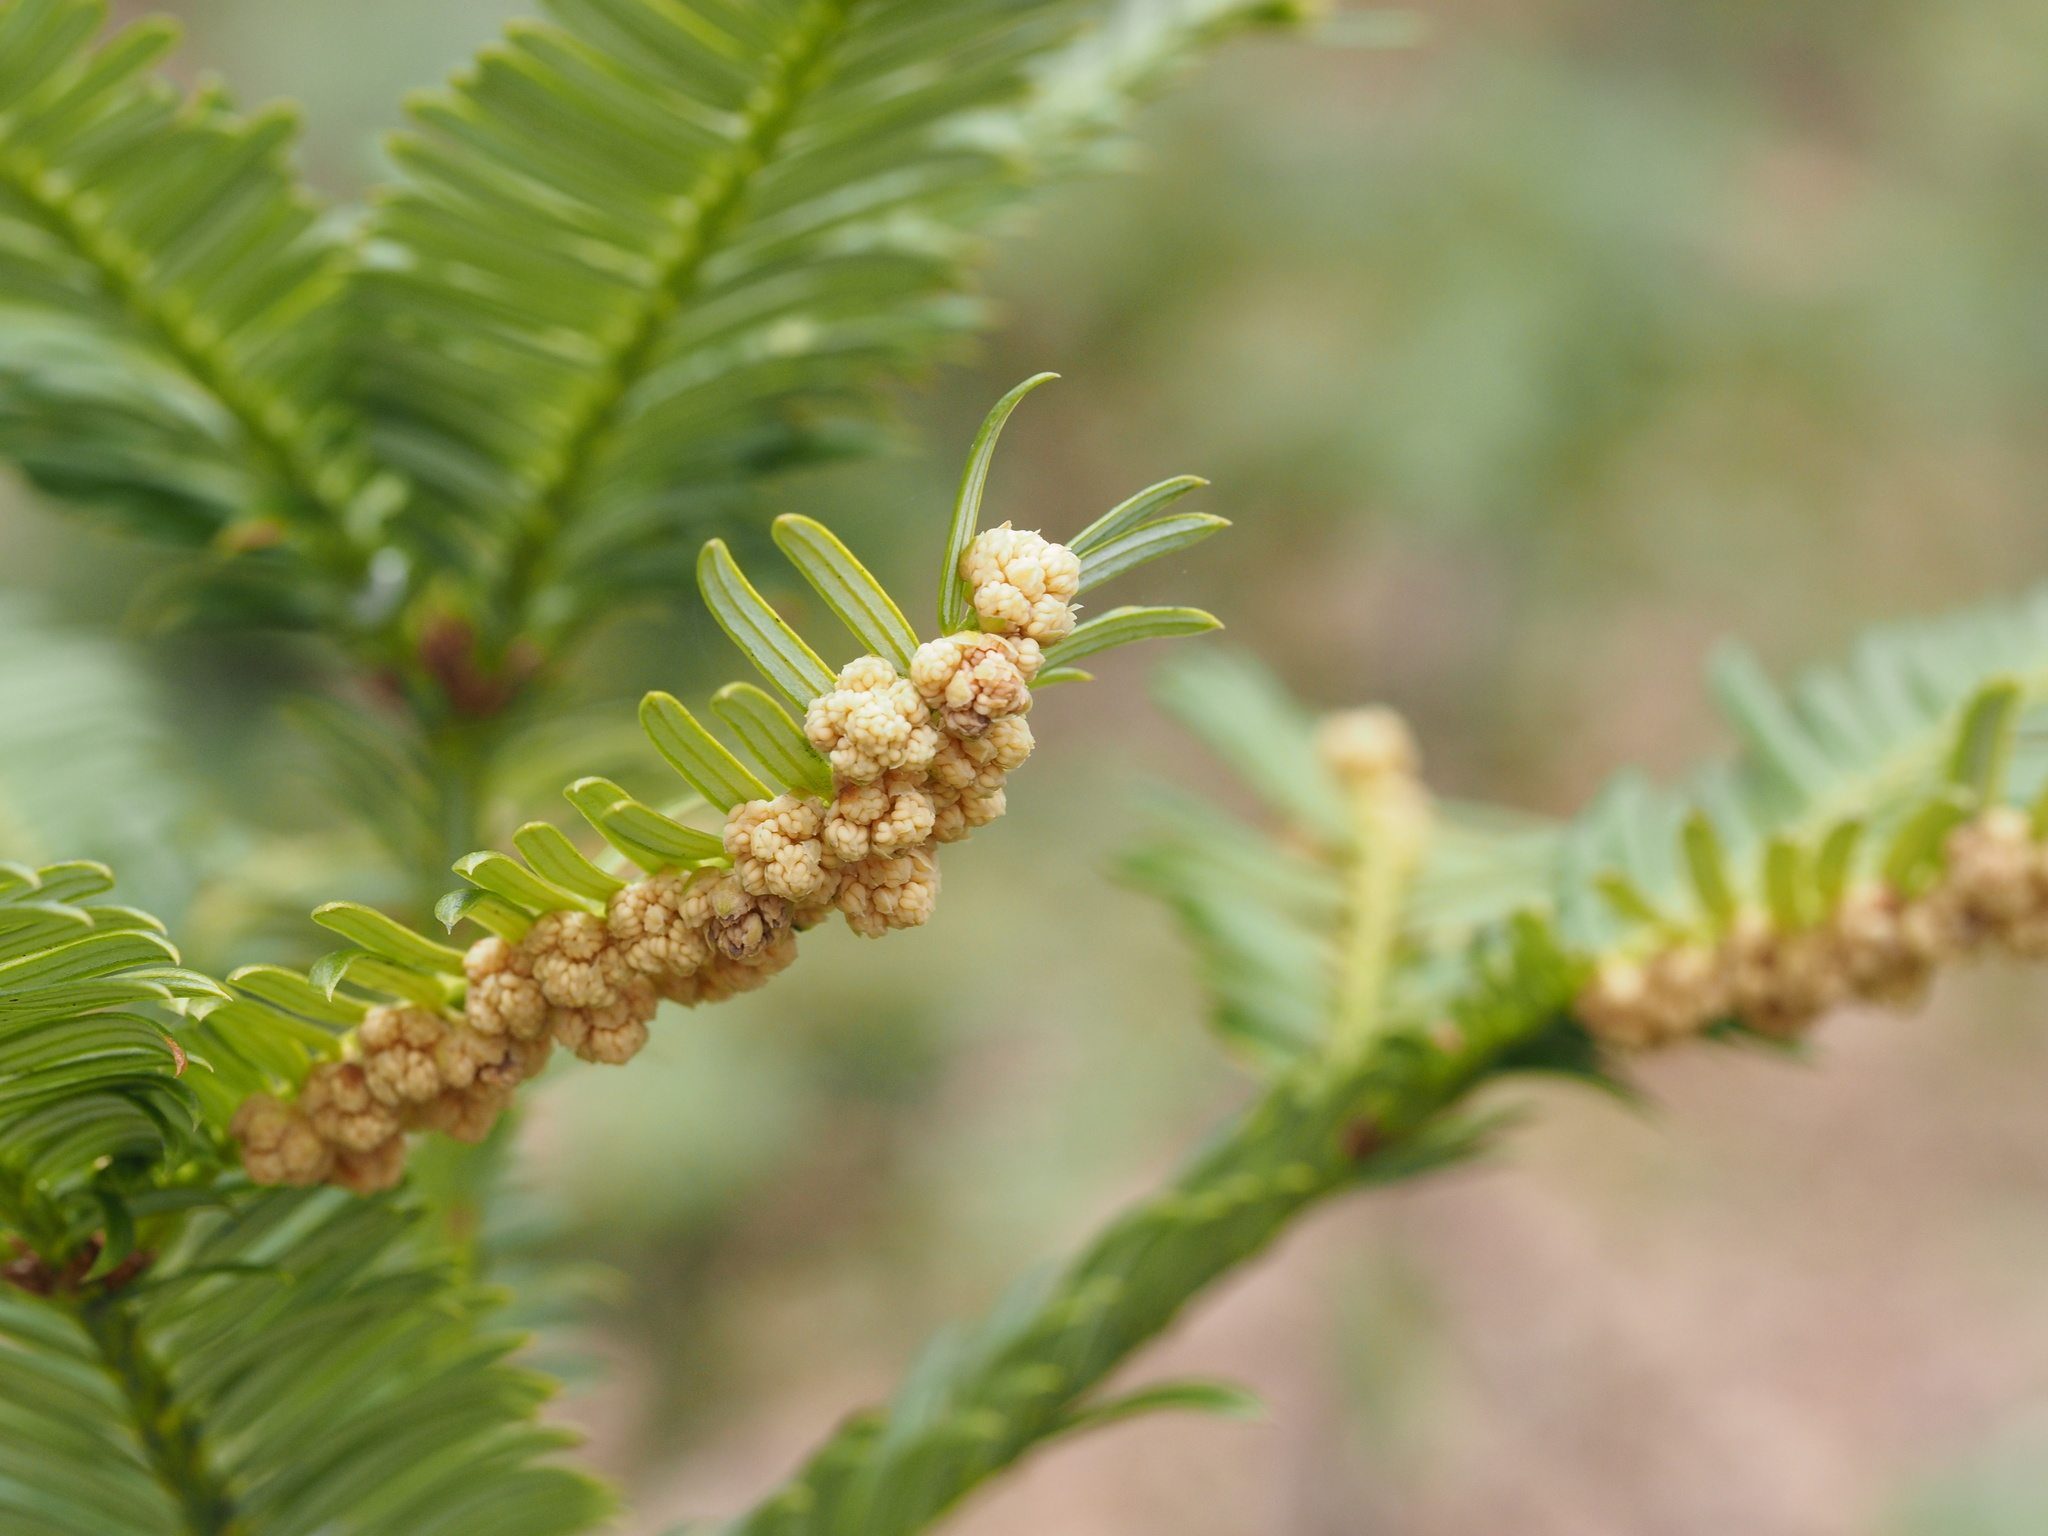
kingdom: Plantae
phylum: Tracheophyta
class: Pinopsida
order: Pinales
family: Cephalotaxaceae
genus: Cephalotaxus
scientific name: Cephalotaxus harringtonii
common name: Harrington's plum yew
